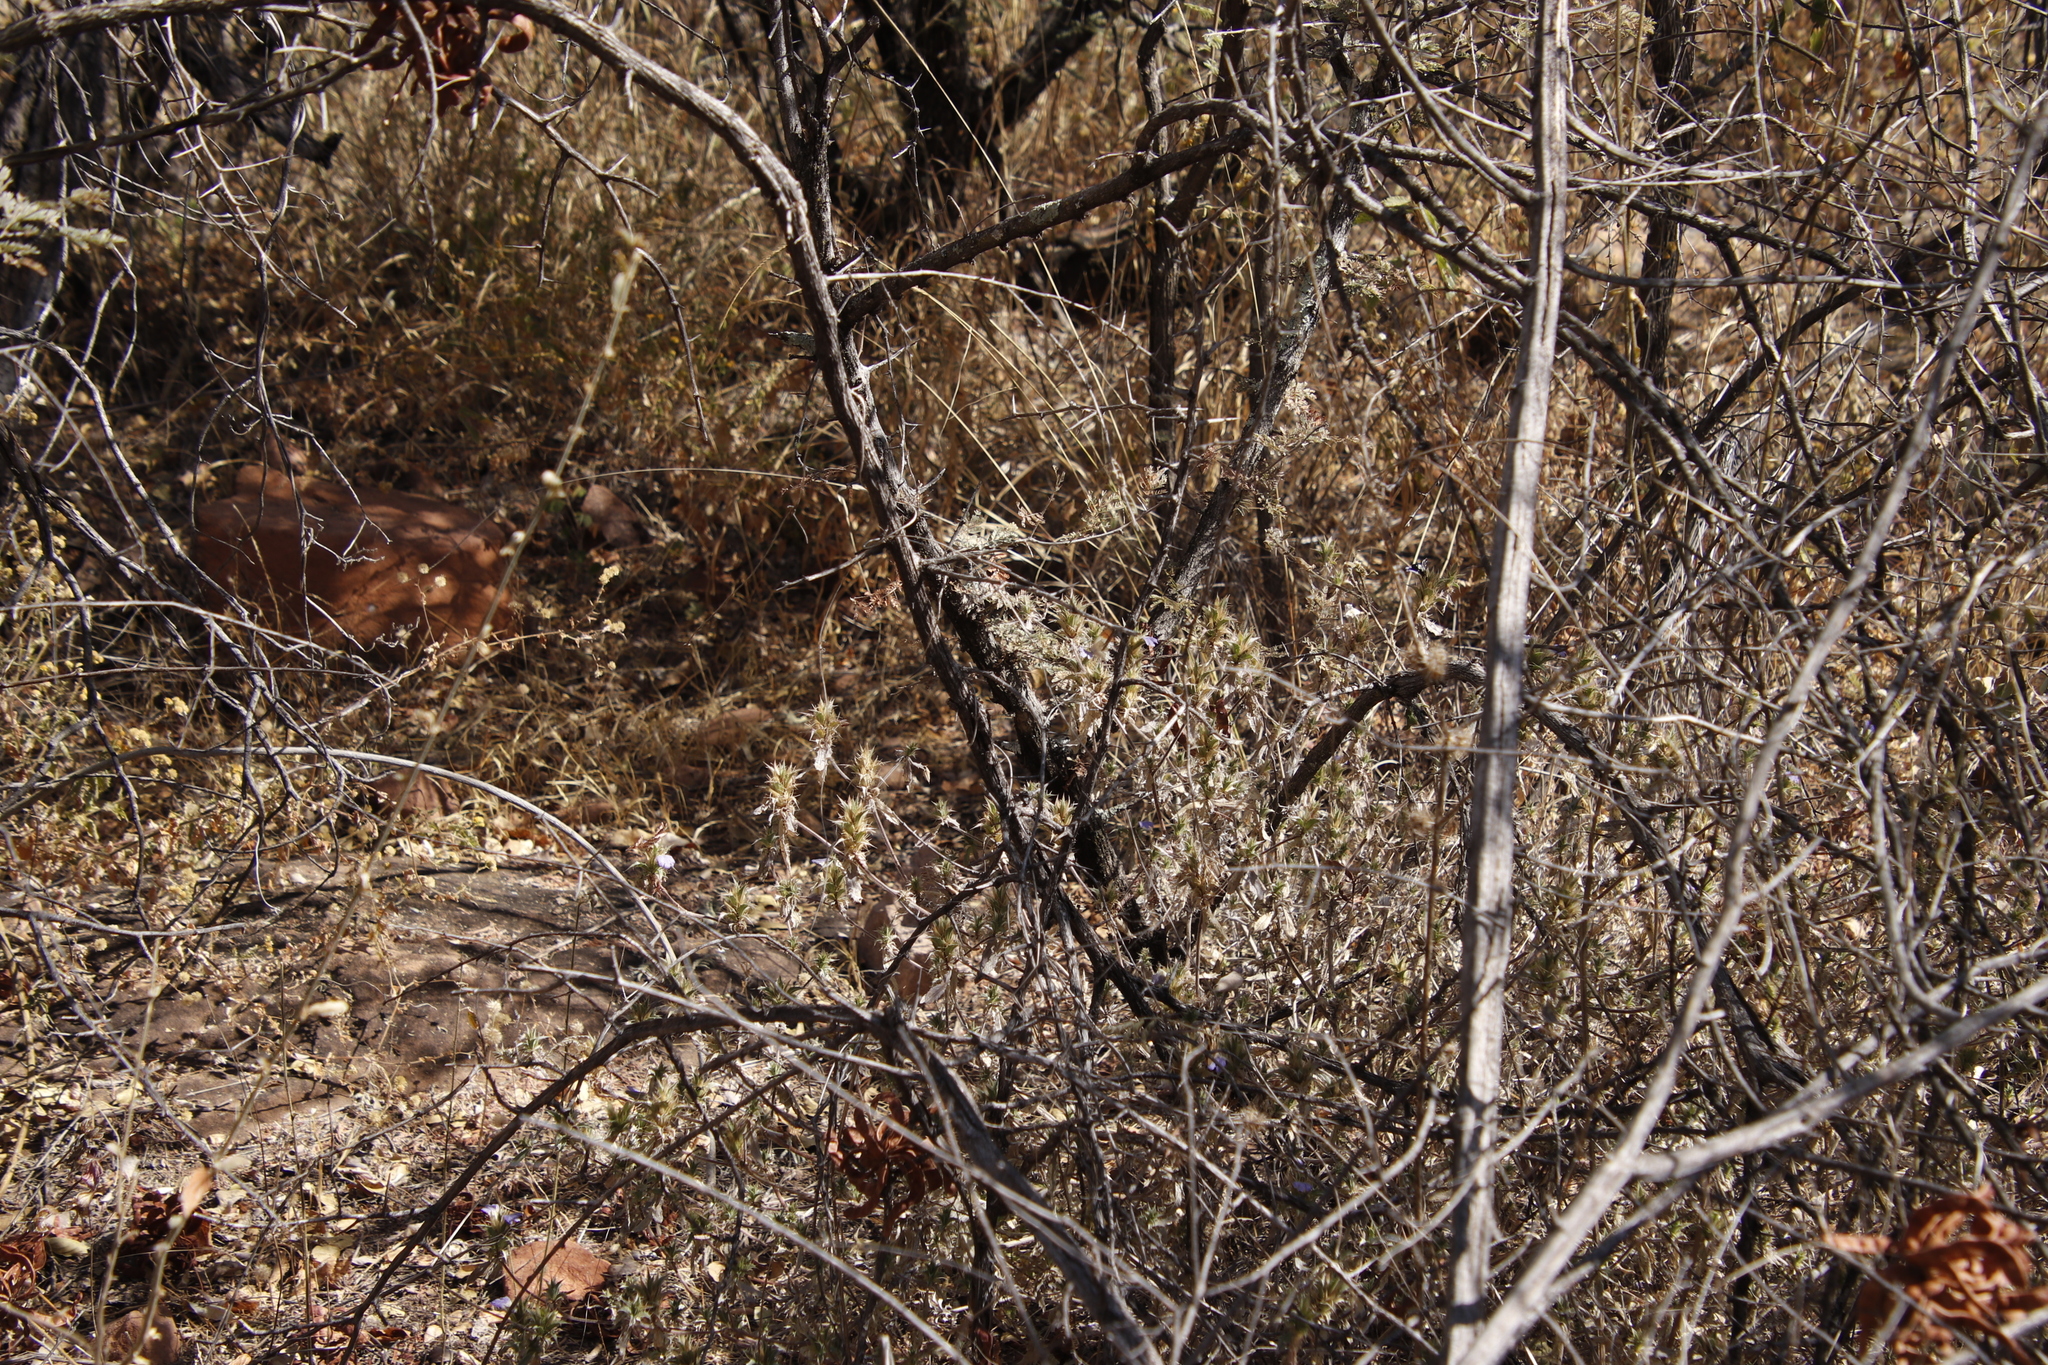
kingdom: Plantae
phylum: Tracheophyta
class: Magnoliopsida
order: Lamiales
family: Acanthaceae
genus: Blepharis
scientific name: Blepharis obmitrata
